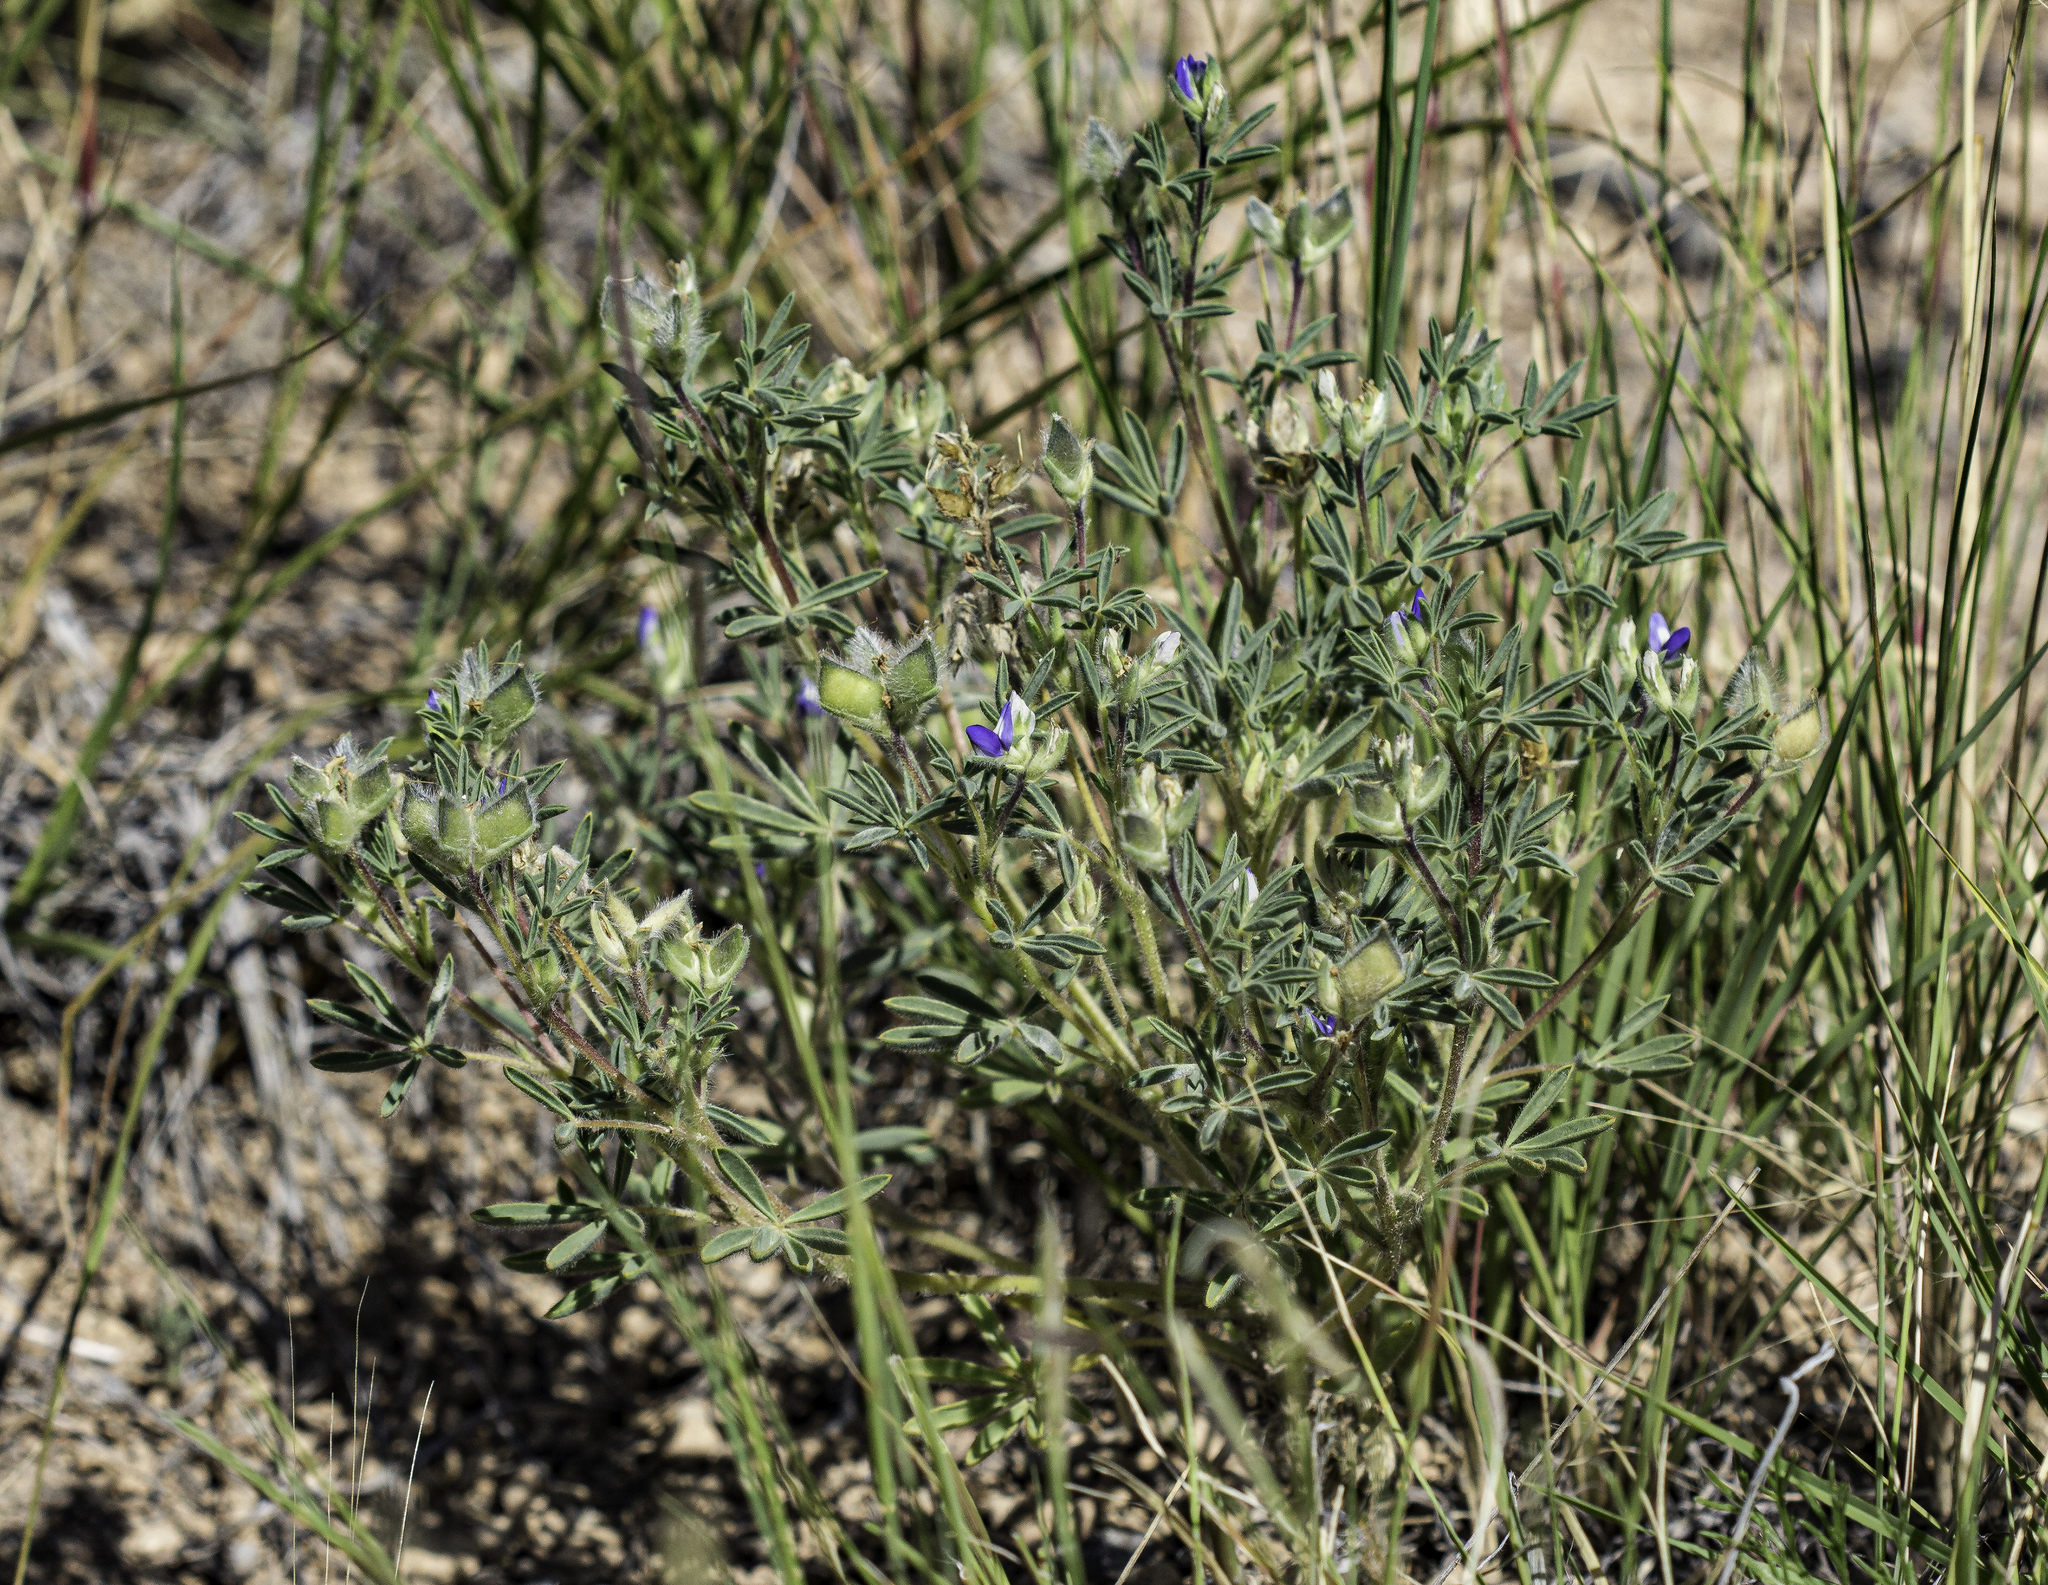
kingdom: Plantae
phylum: Tracheophyta
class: Magnoliopsida
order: Fabales
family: Fabaceae
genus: Lupinus
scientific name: Lupinus kingii
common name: King's lupine
